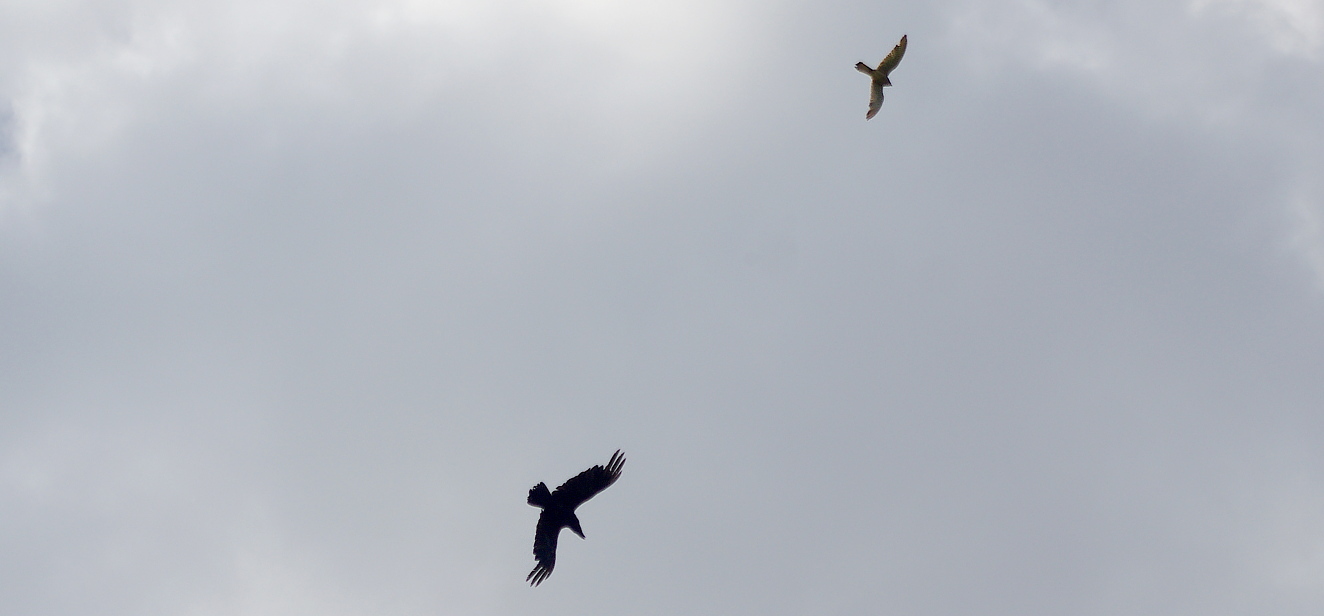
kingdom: Animalia
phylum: Chordata
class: Aves
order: Passeriformes
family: Corvidae
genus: Corvus
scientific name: Corvus corax
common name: Common raven
